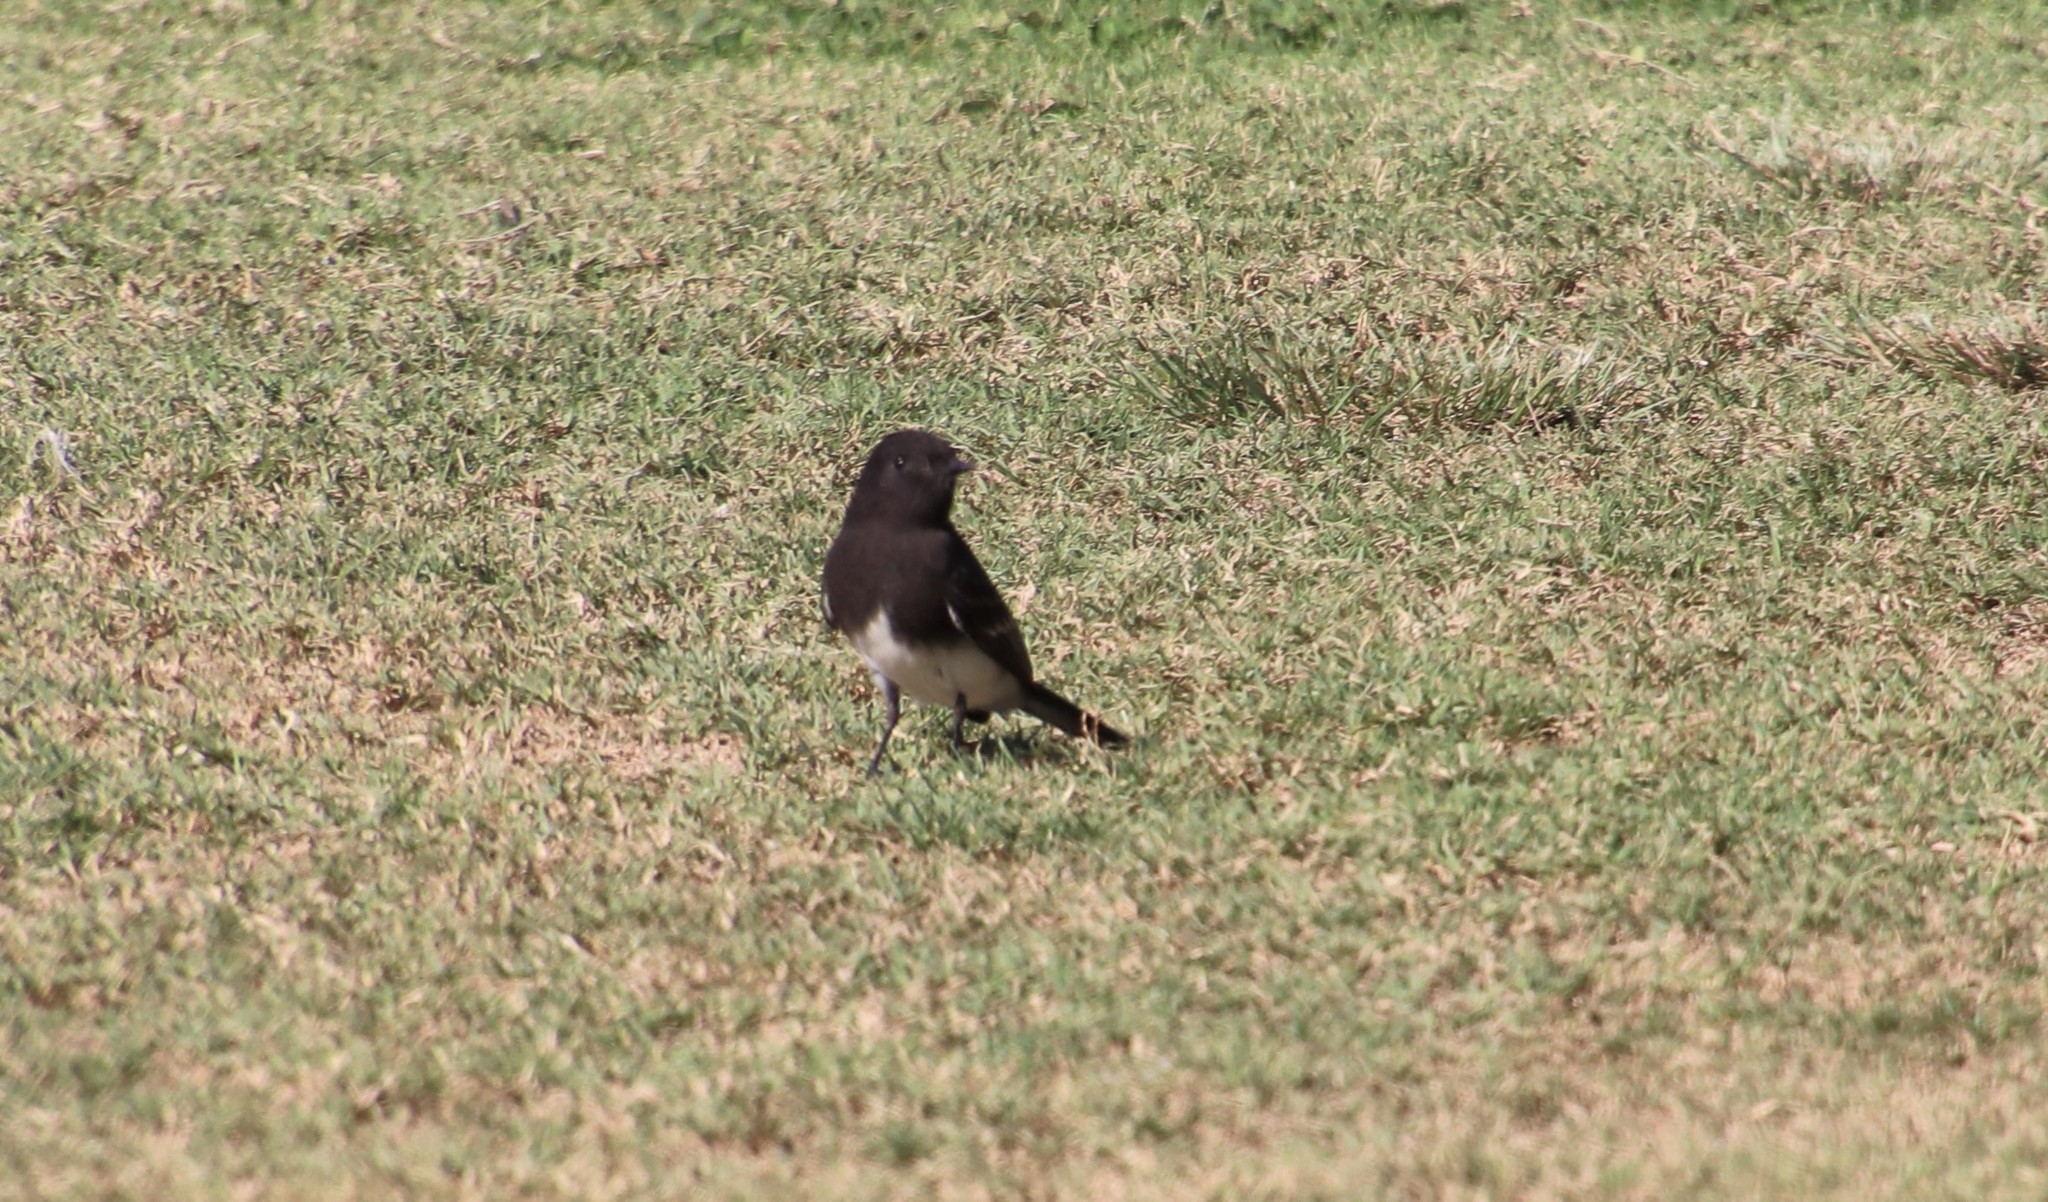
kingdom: Animalia
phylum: Chordata
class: Aves
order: Passeriformes
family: Tyrannidae
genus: Sayornis
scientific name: Sayornis nigricans
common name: Black phoebe
